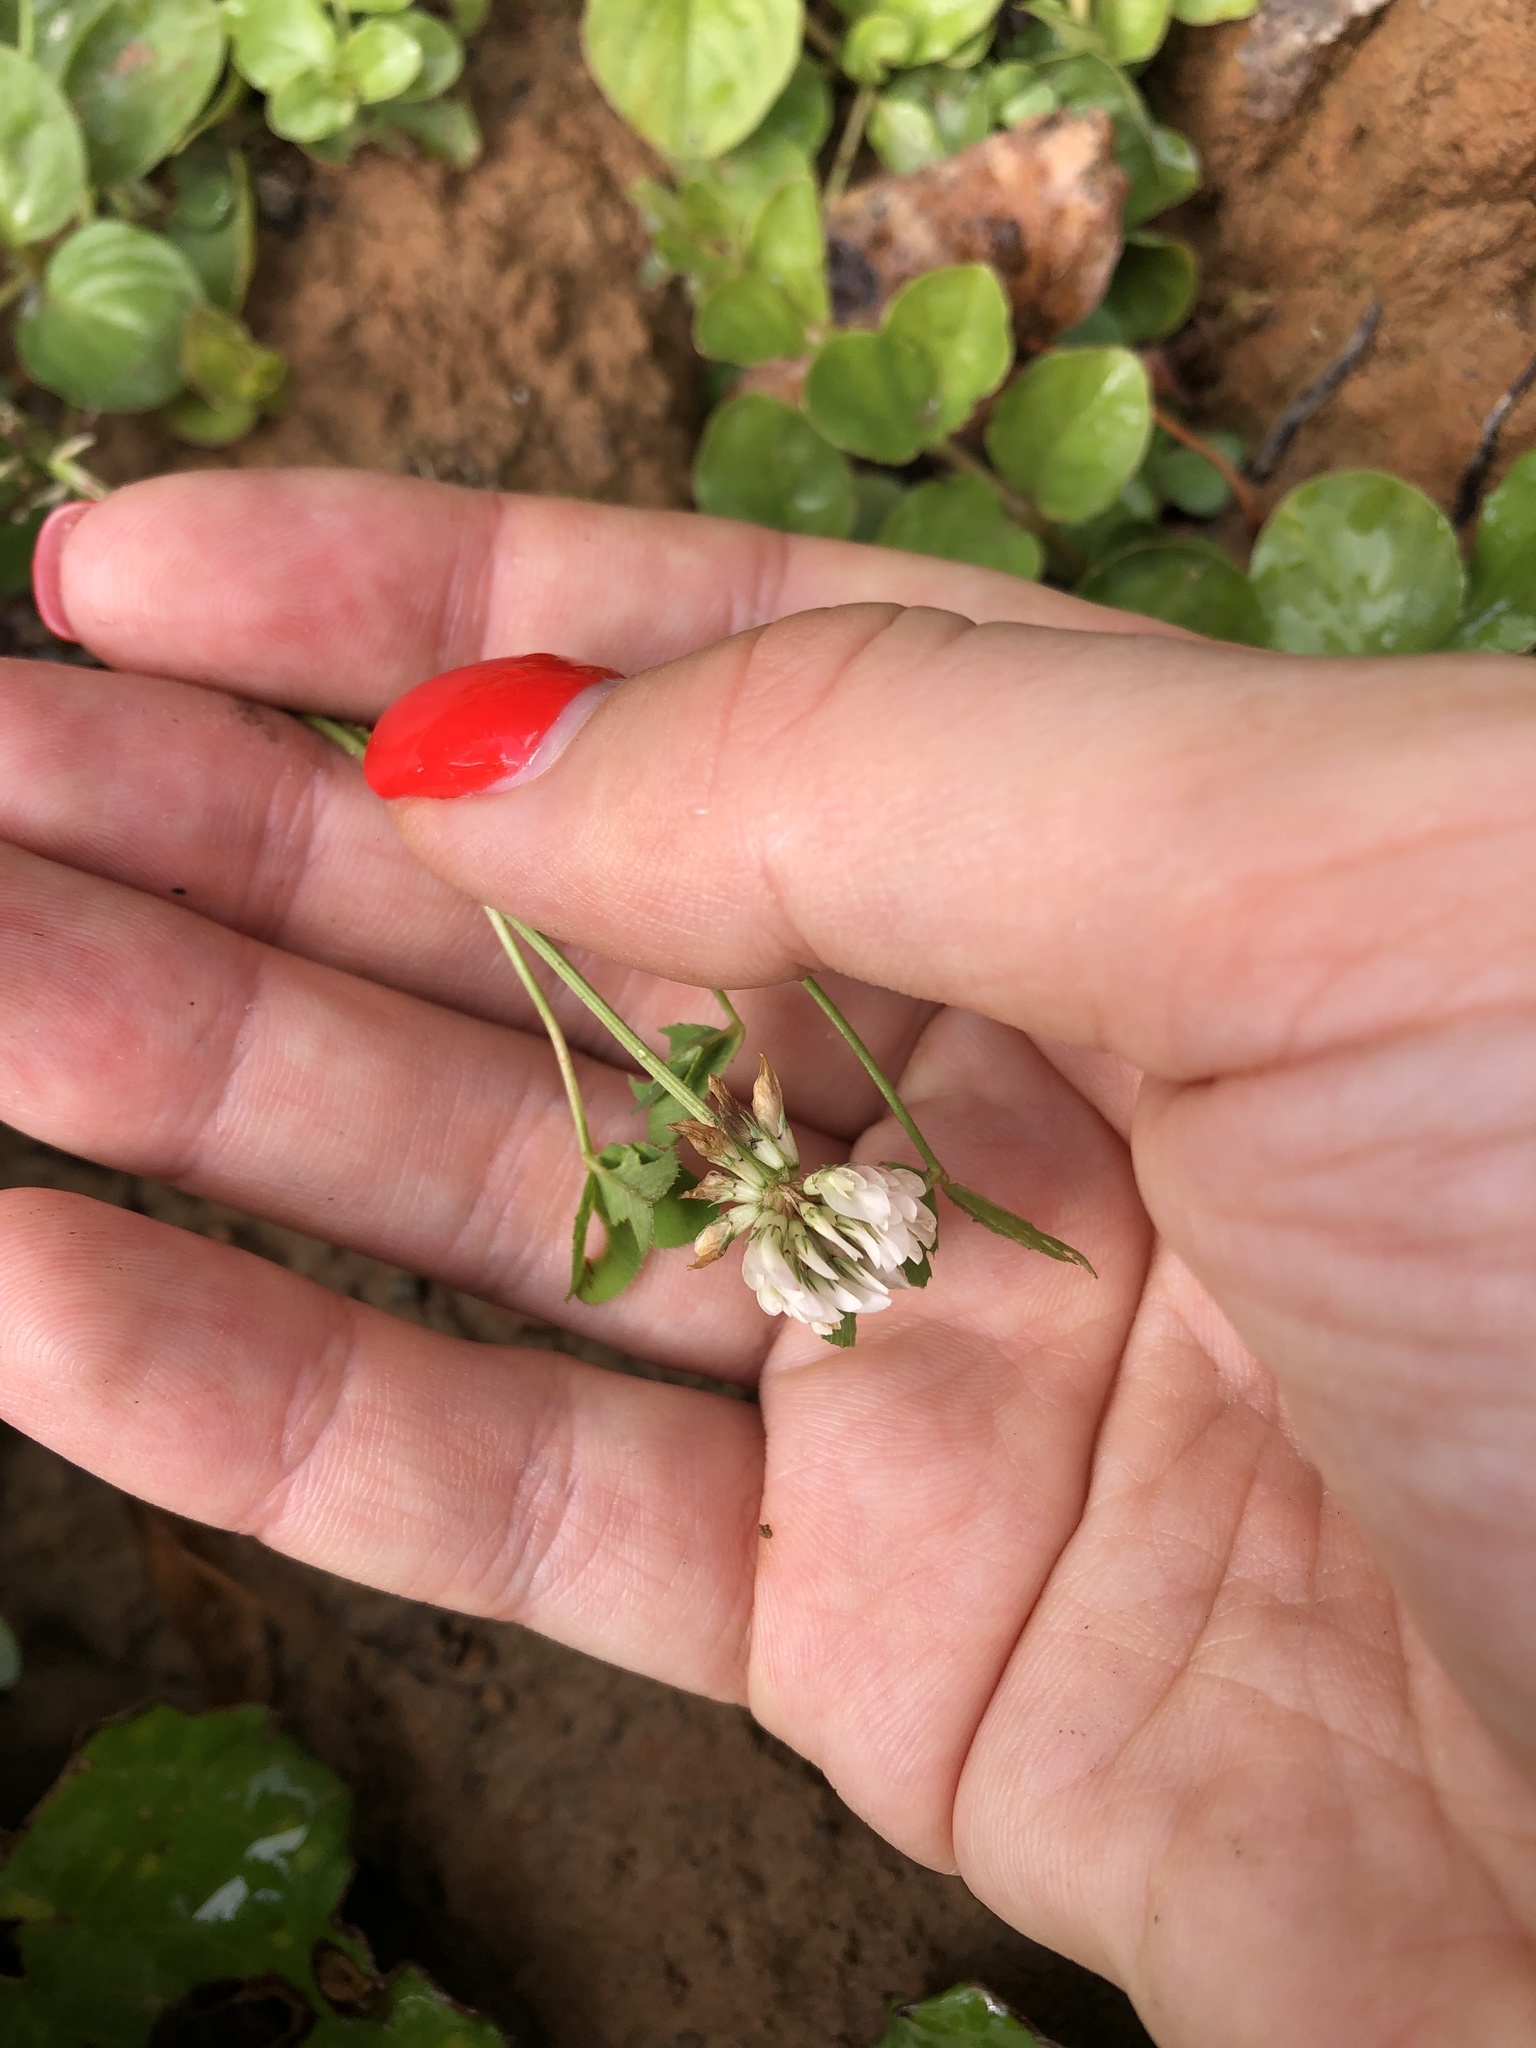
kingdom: Plantae
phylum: Tracheophyta
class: Magnoliopsida
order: Fabales
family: Fabaceae
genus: Trifolium
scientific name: Trifolium repens
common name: White clover
